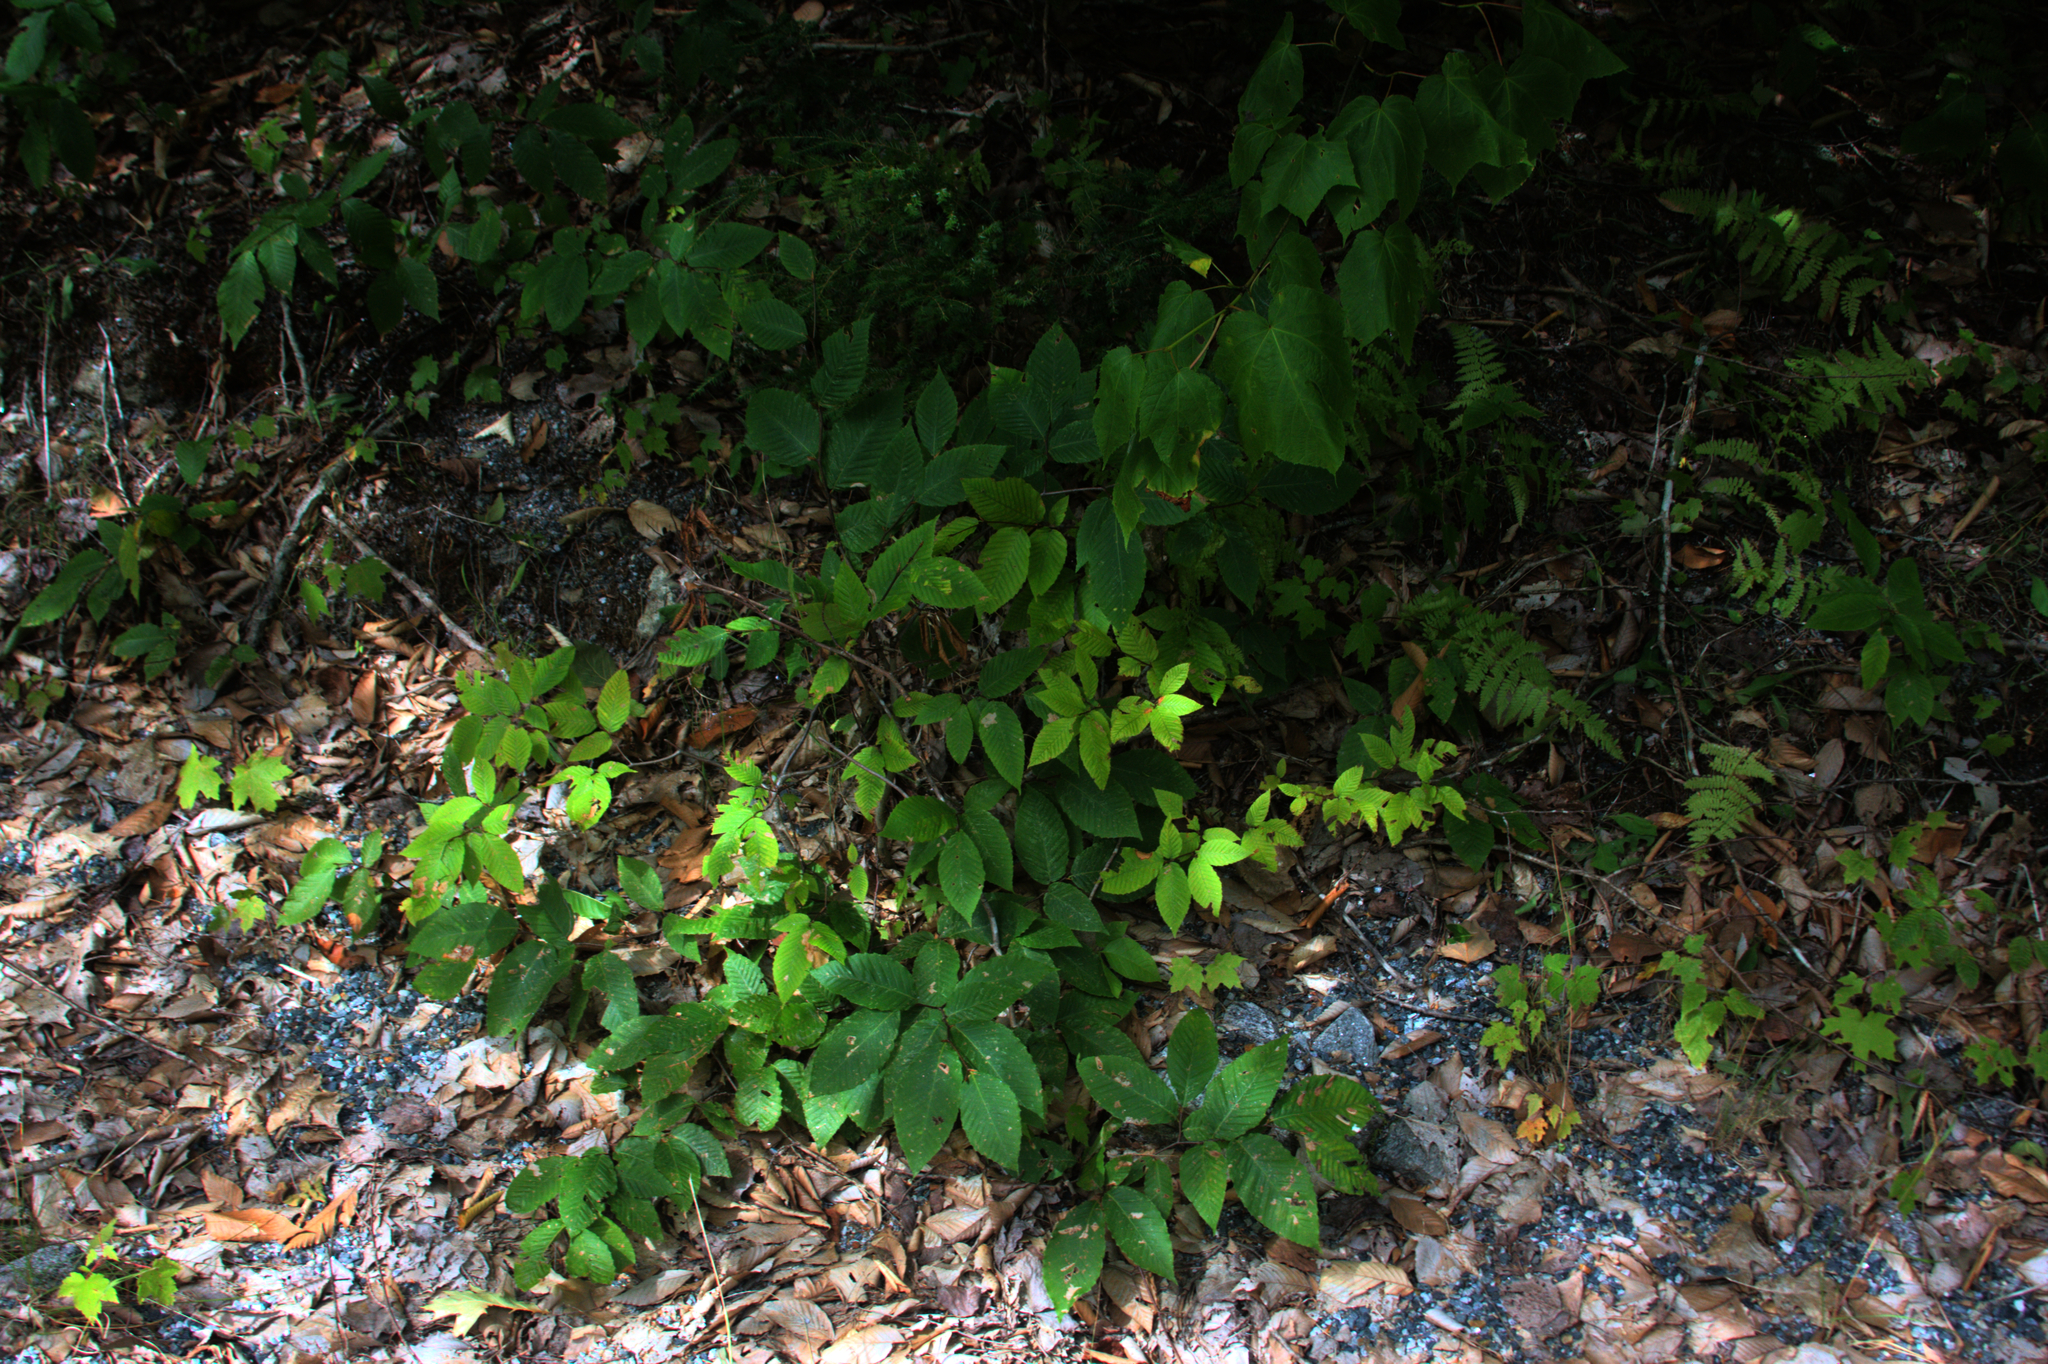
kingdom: Plantae
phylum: Tracheophyta
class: Magnoliopsida
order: Fagales
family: Fagaceae
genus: Fagus
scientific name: Fagus grandifolia
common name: American beech
